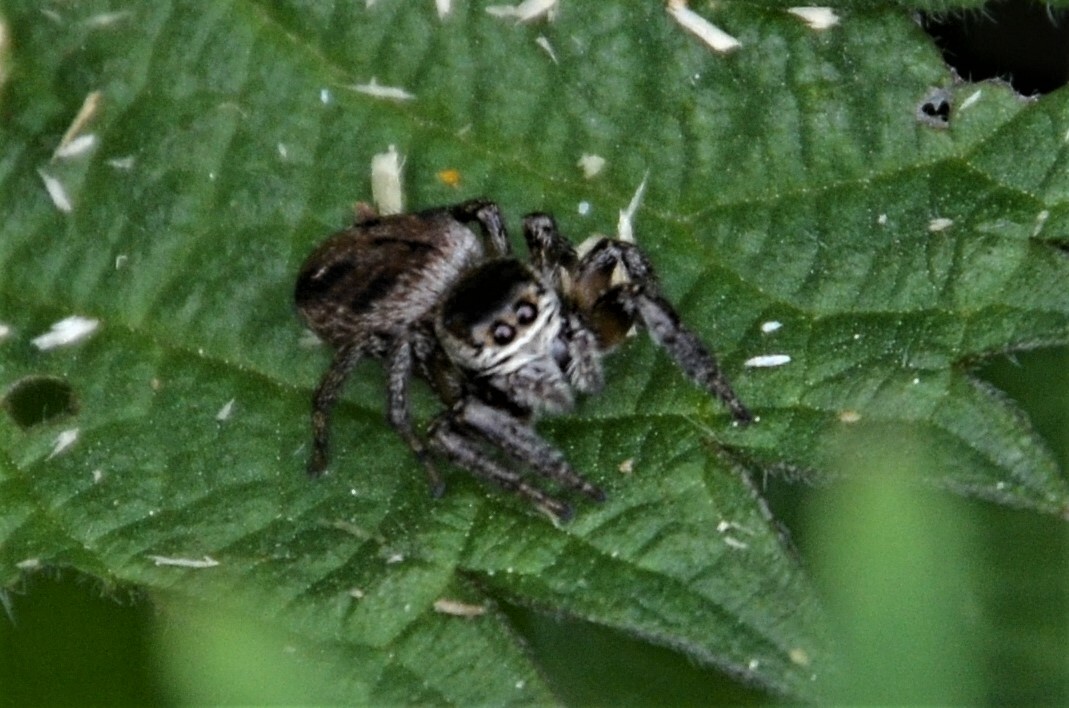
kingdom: Animalia
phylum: Arthropoda
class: Arachnida
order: Araneae
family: Salticidae
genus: Evarcha
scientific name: Evarcha arcuata
